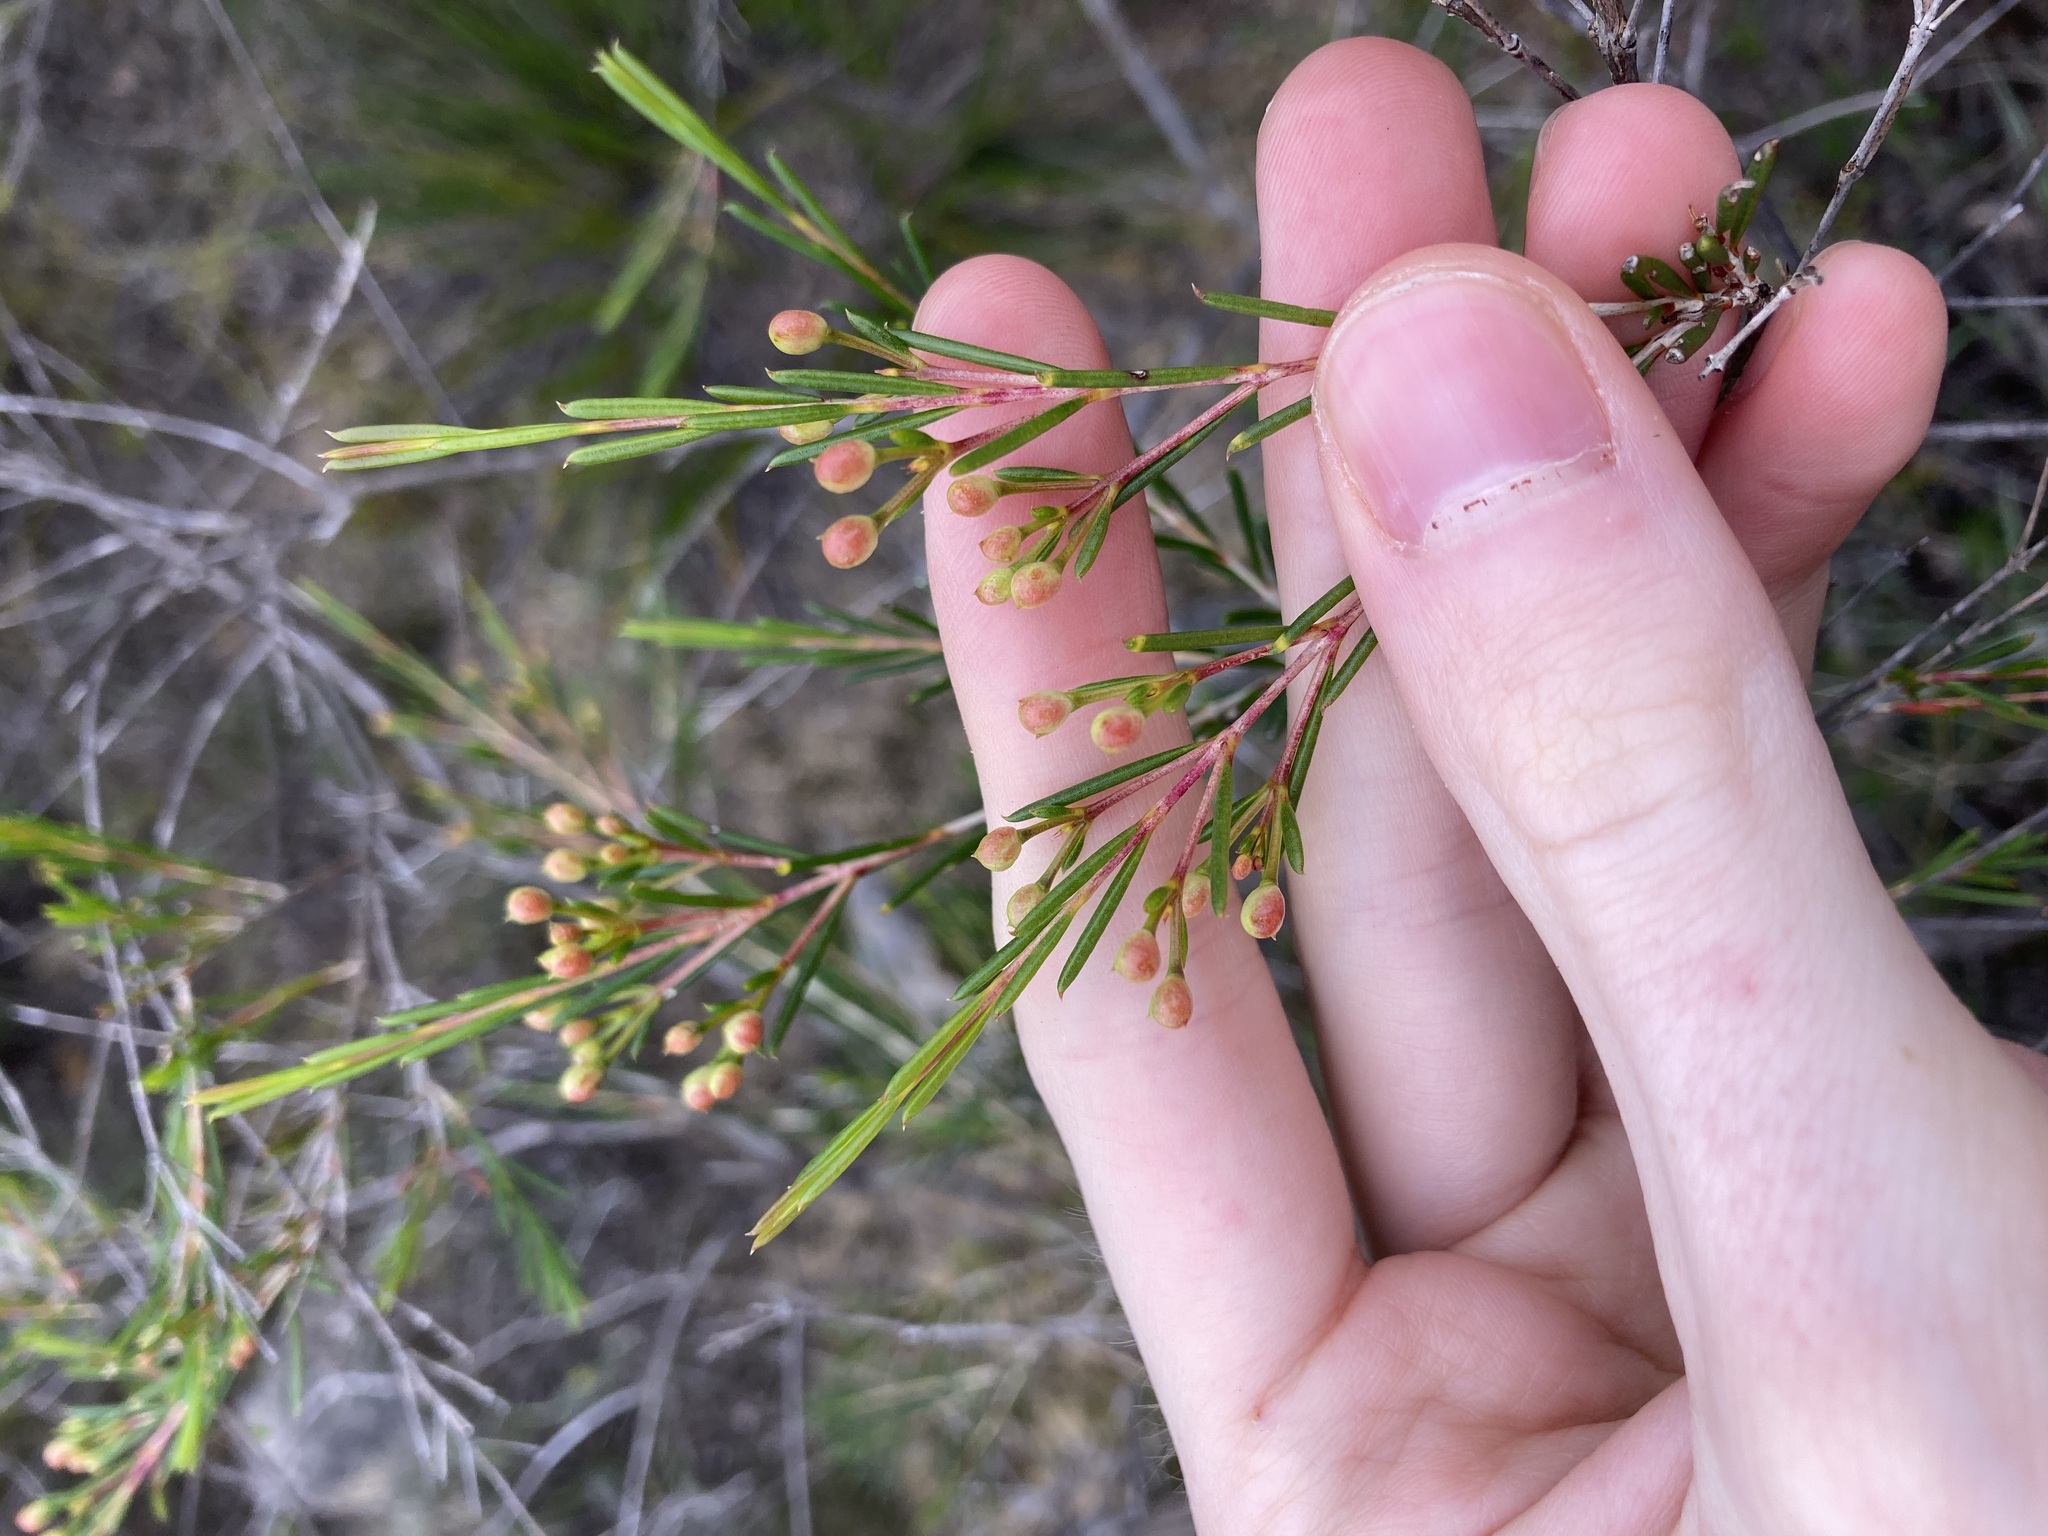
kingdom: Plantae
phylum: Tracheophyta
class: Magnoliopsida
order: Myrtales
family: Myrtaceae
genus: Chamelaucium
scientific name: Chamelaucium uncinatum
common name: Geraldton wax
